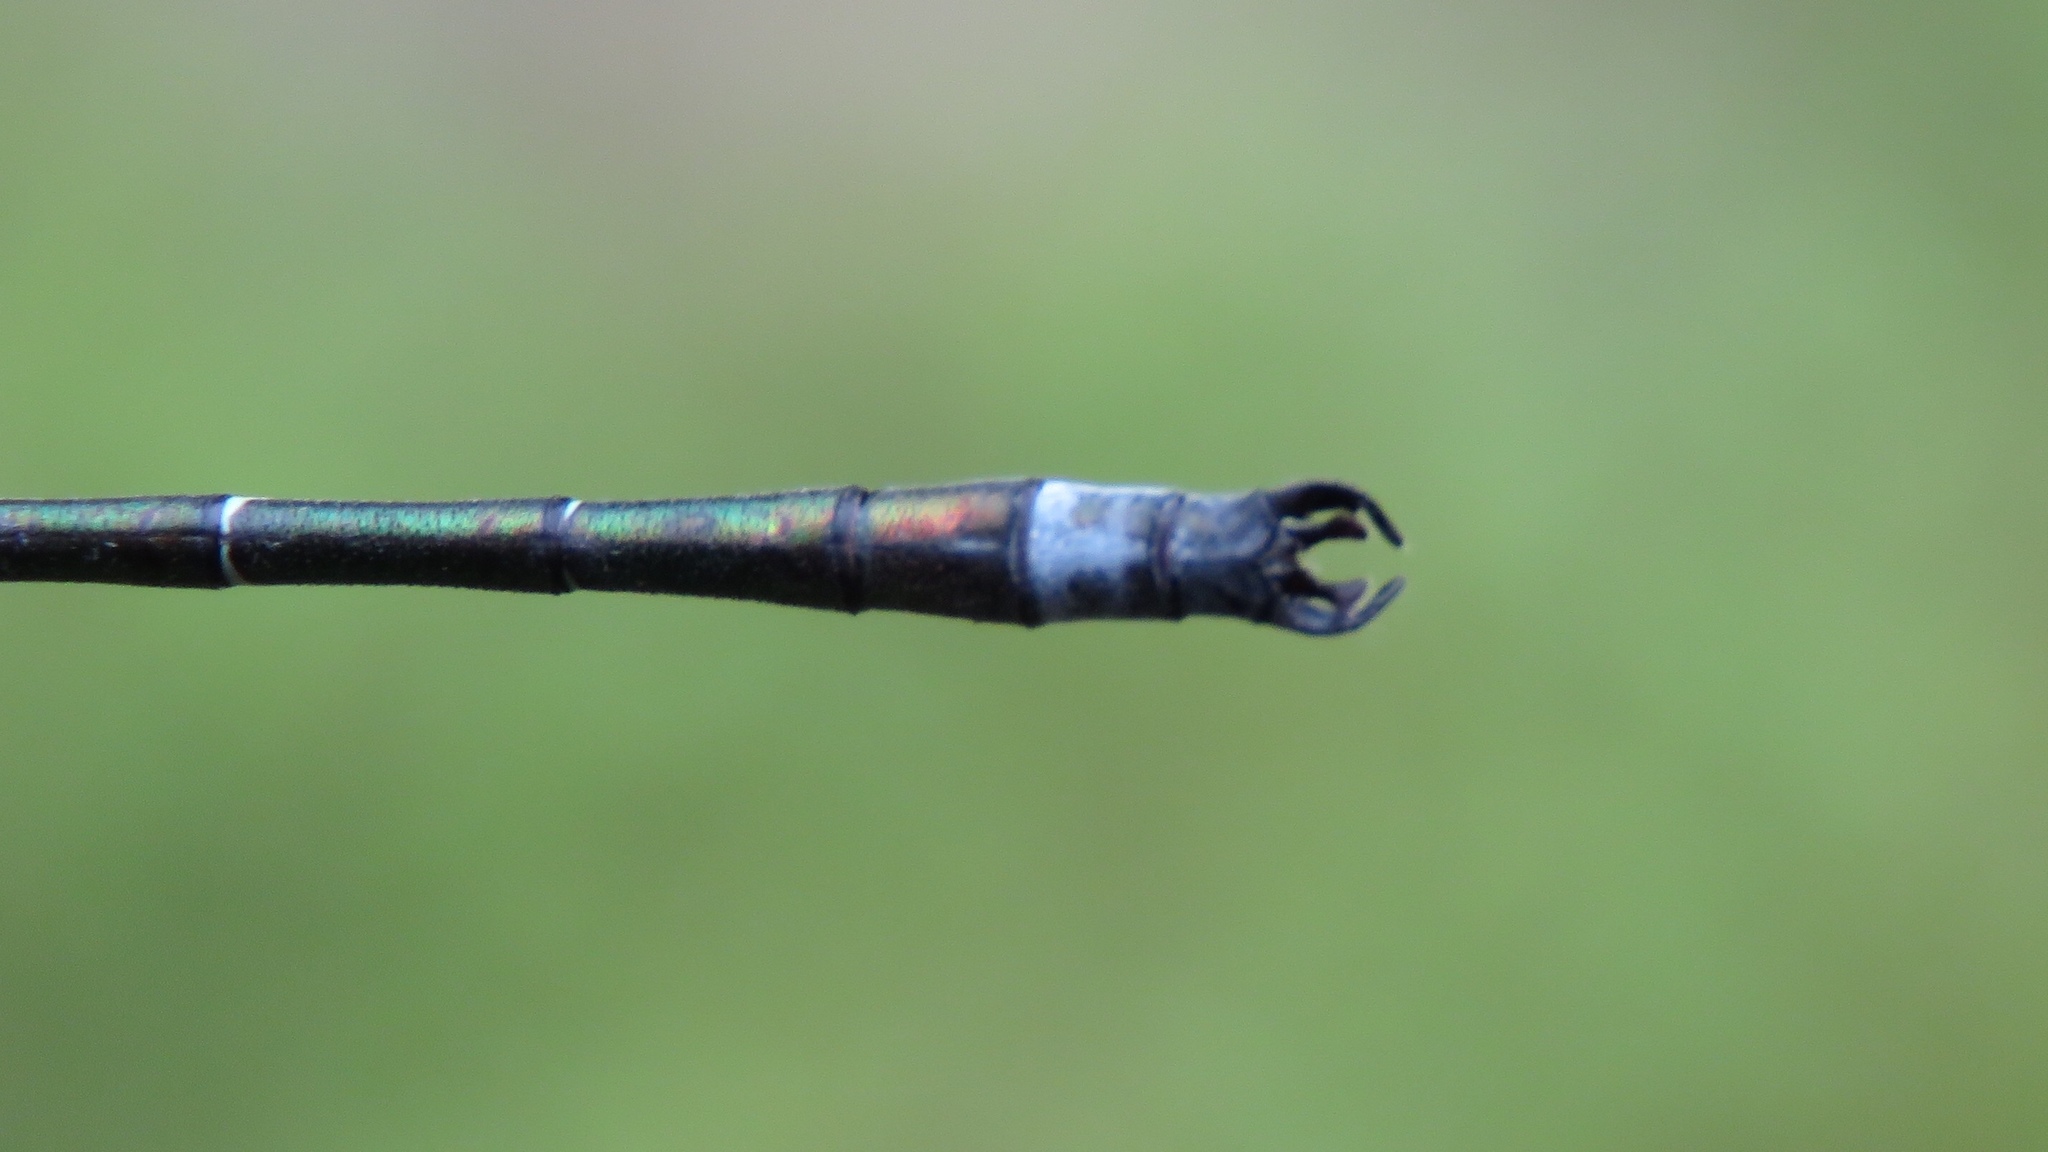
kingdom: Animalia
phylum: Arthropoda
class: Insecta
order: Odonata
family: Lestidae
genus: Lestes
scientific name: Lestes dryas
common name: Scarce emerald damselfly
